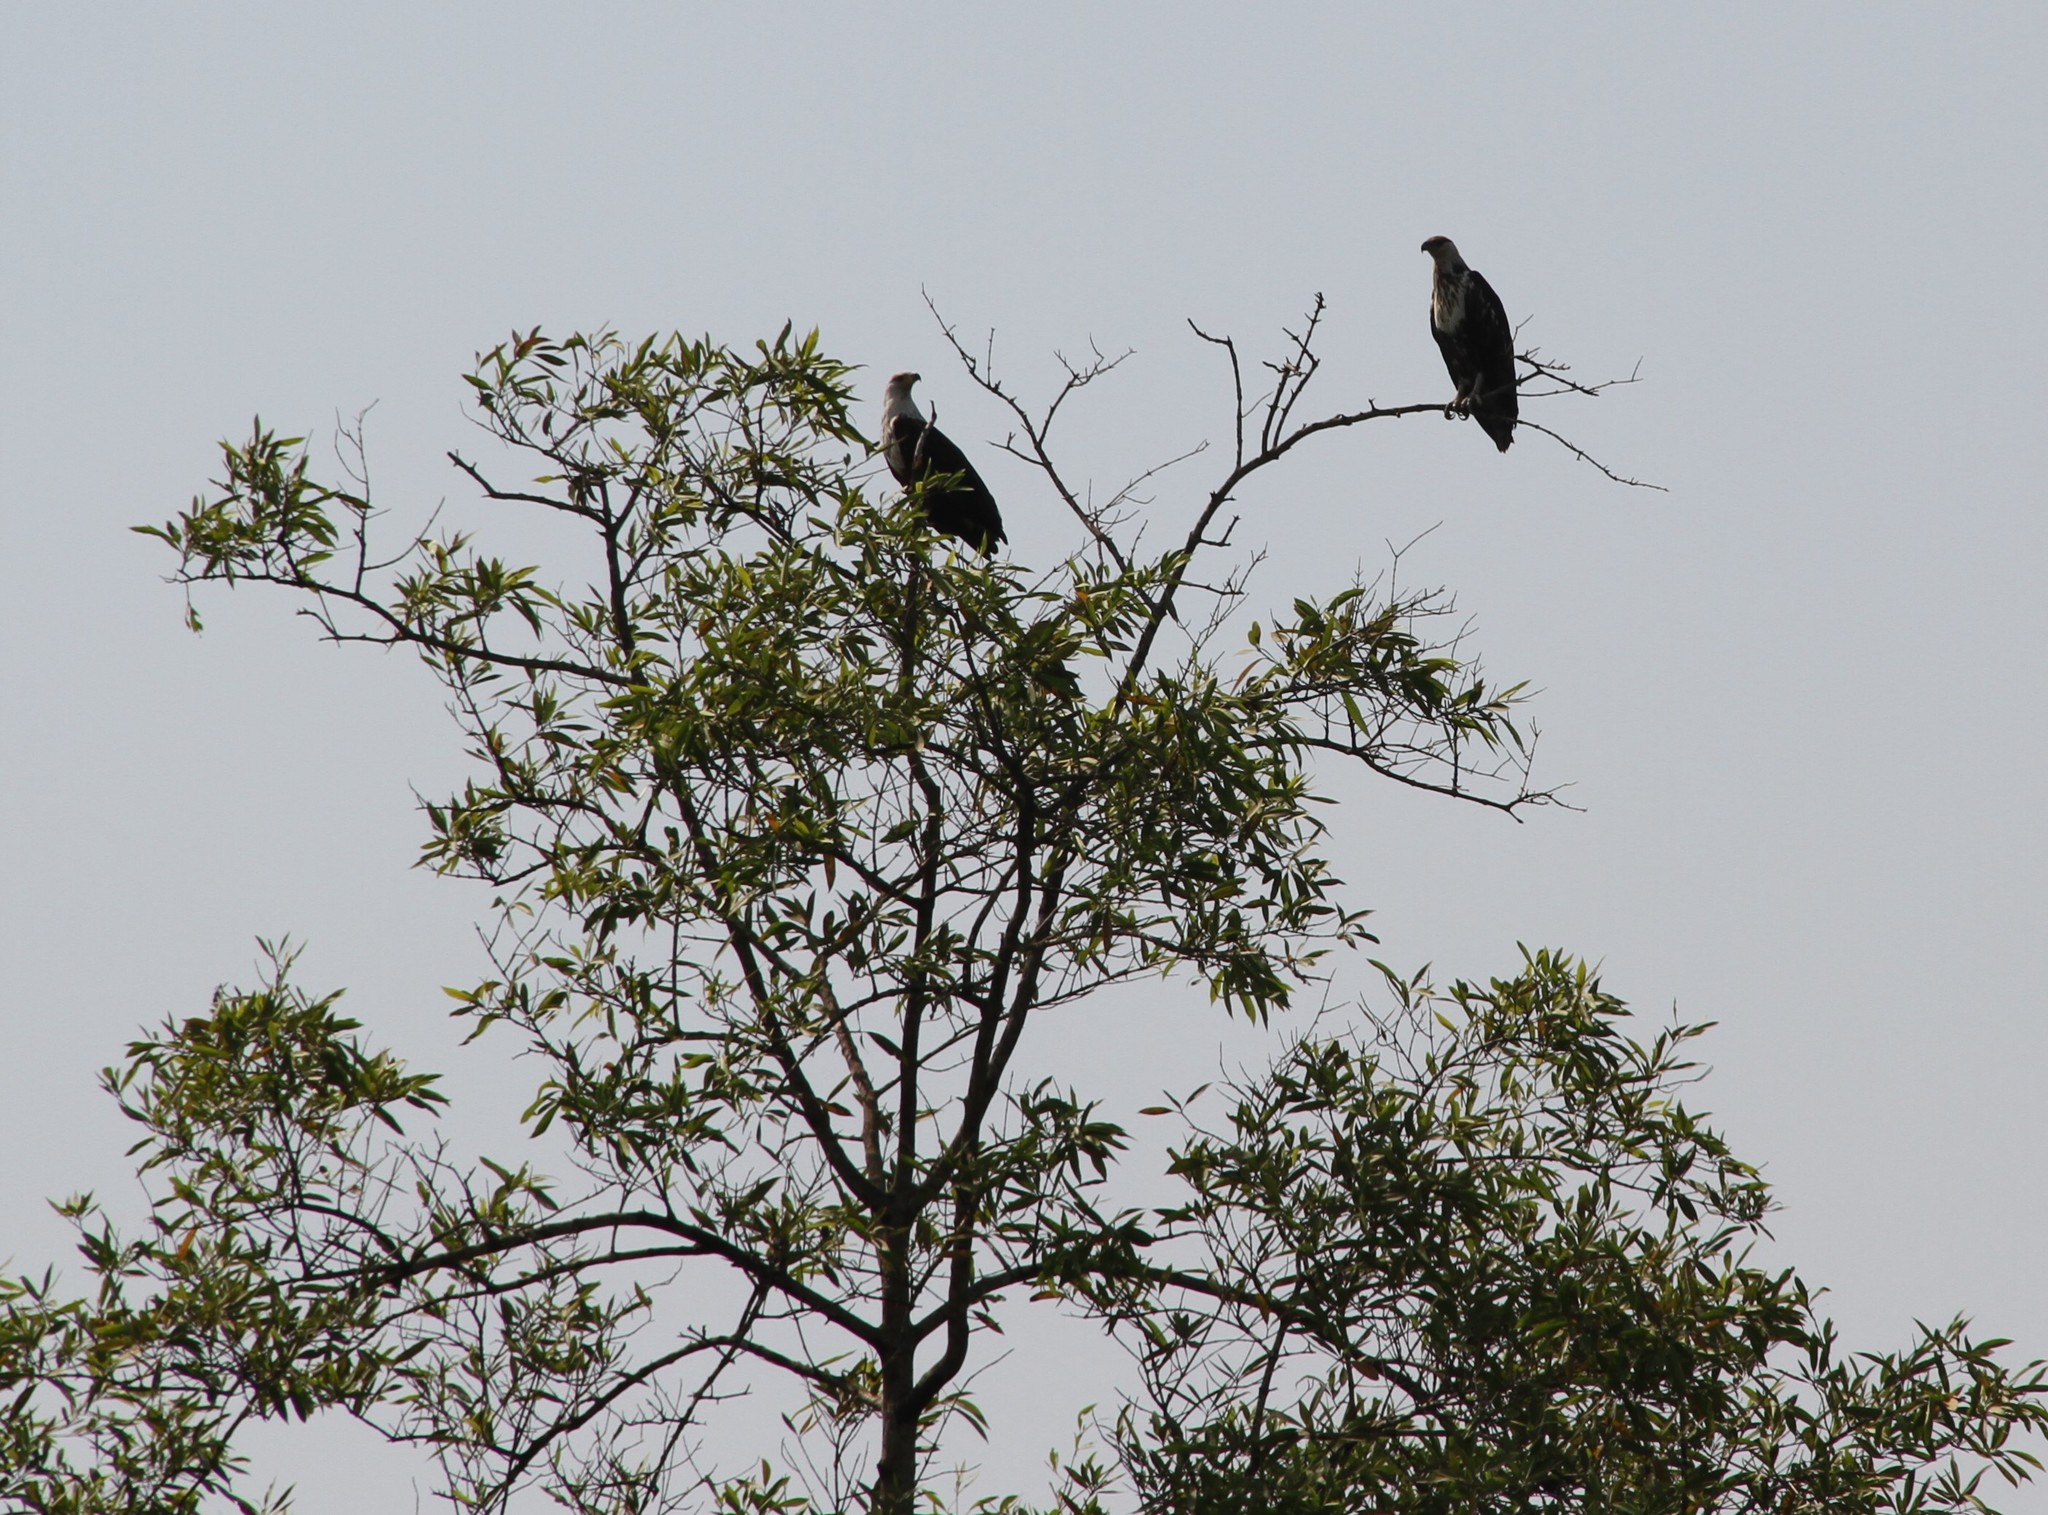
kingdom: Animalia
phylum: Chordata
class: Aves
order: Accipitriformes
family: Accipitridae
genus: Haliaeetus
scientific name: Haliaeetus vocifer
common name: African fish eagle
